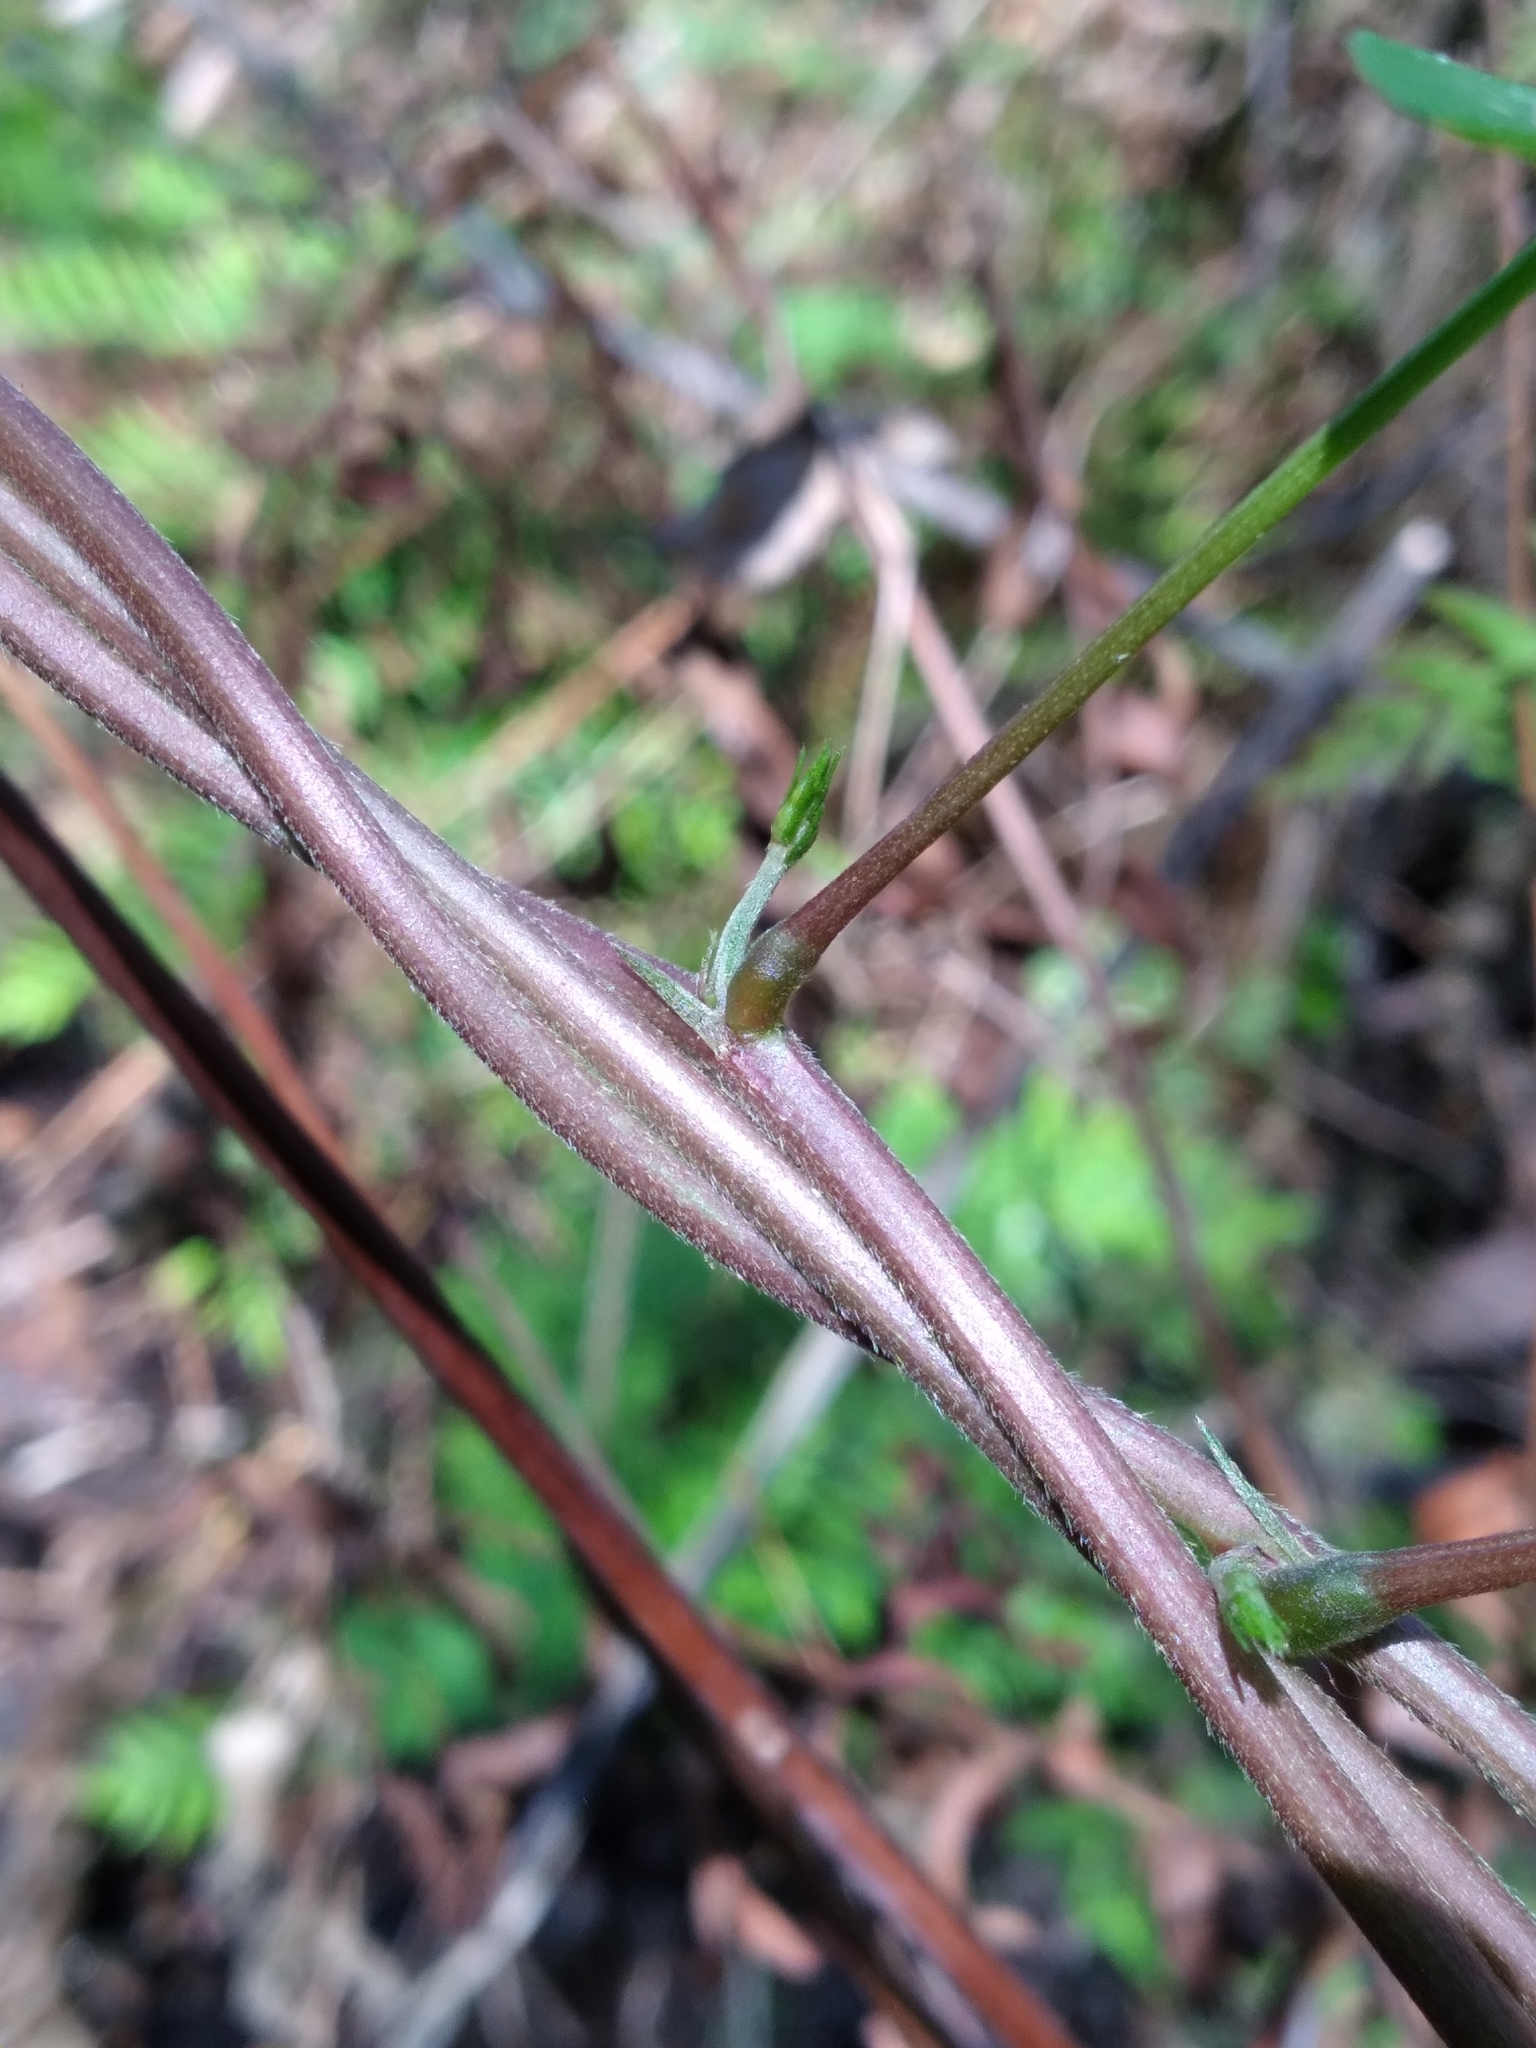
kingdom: Plantae
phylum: Tracheophyta
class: Magnoliopsida
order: Fabales
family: Fabaceae
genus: Apios
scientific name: Apios americana
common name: American potato-bean
